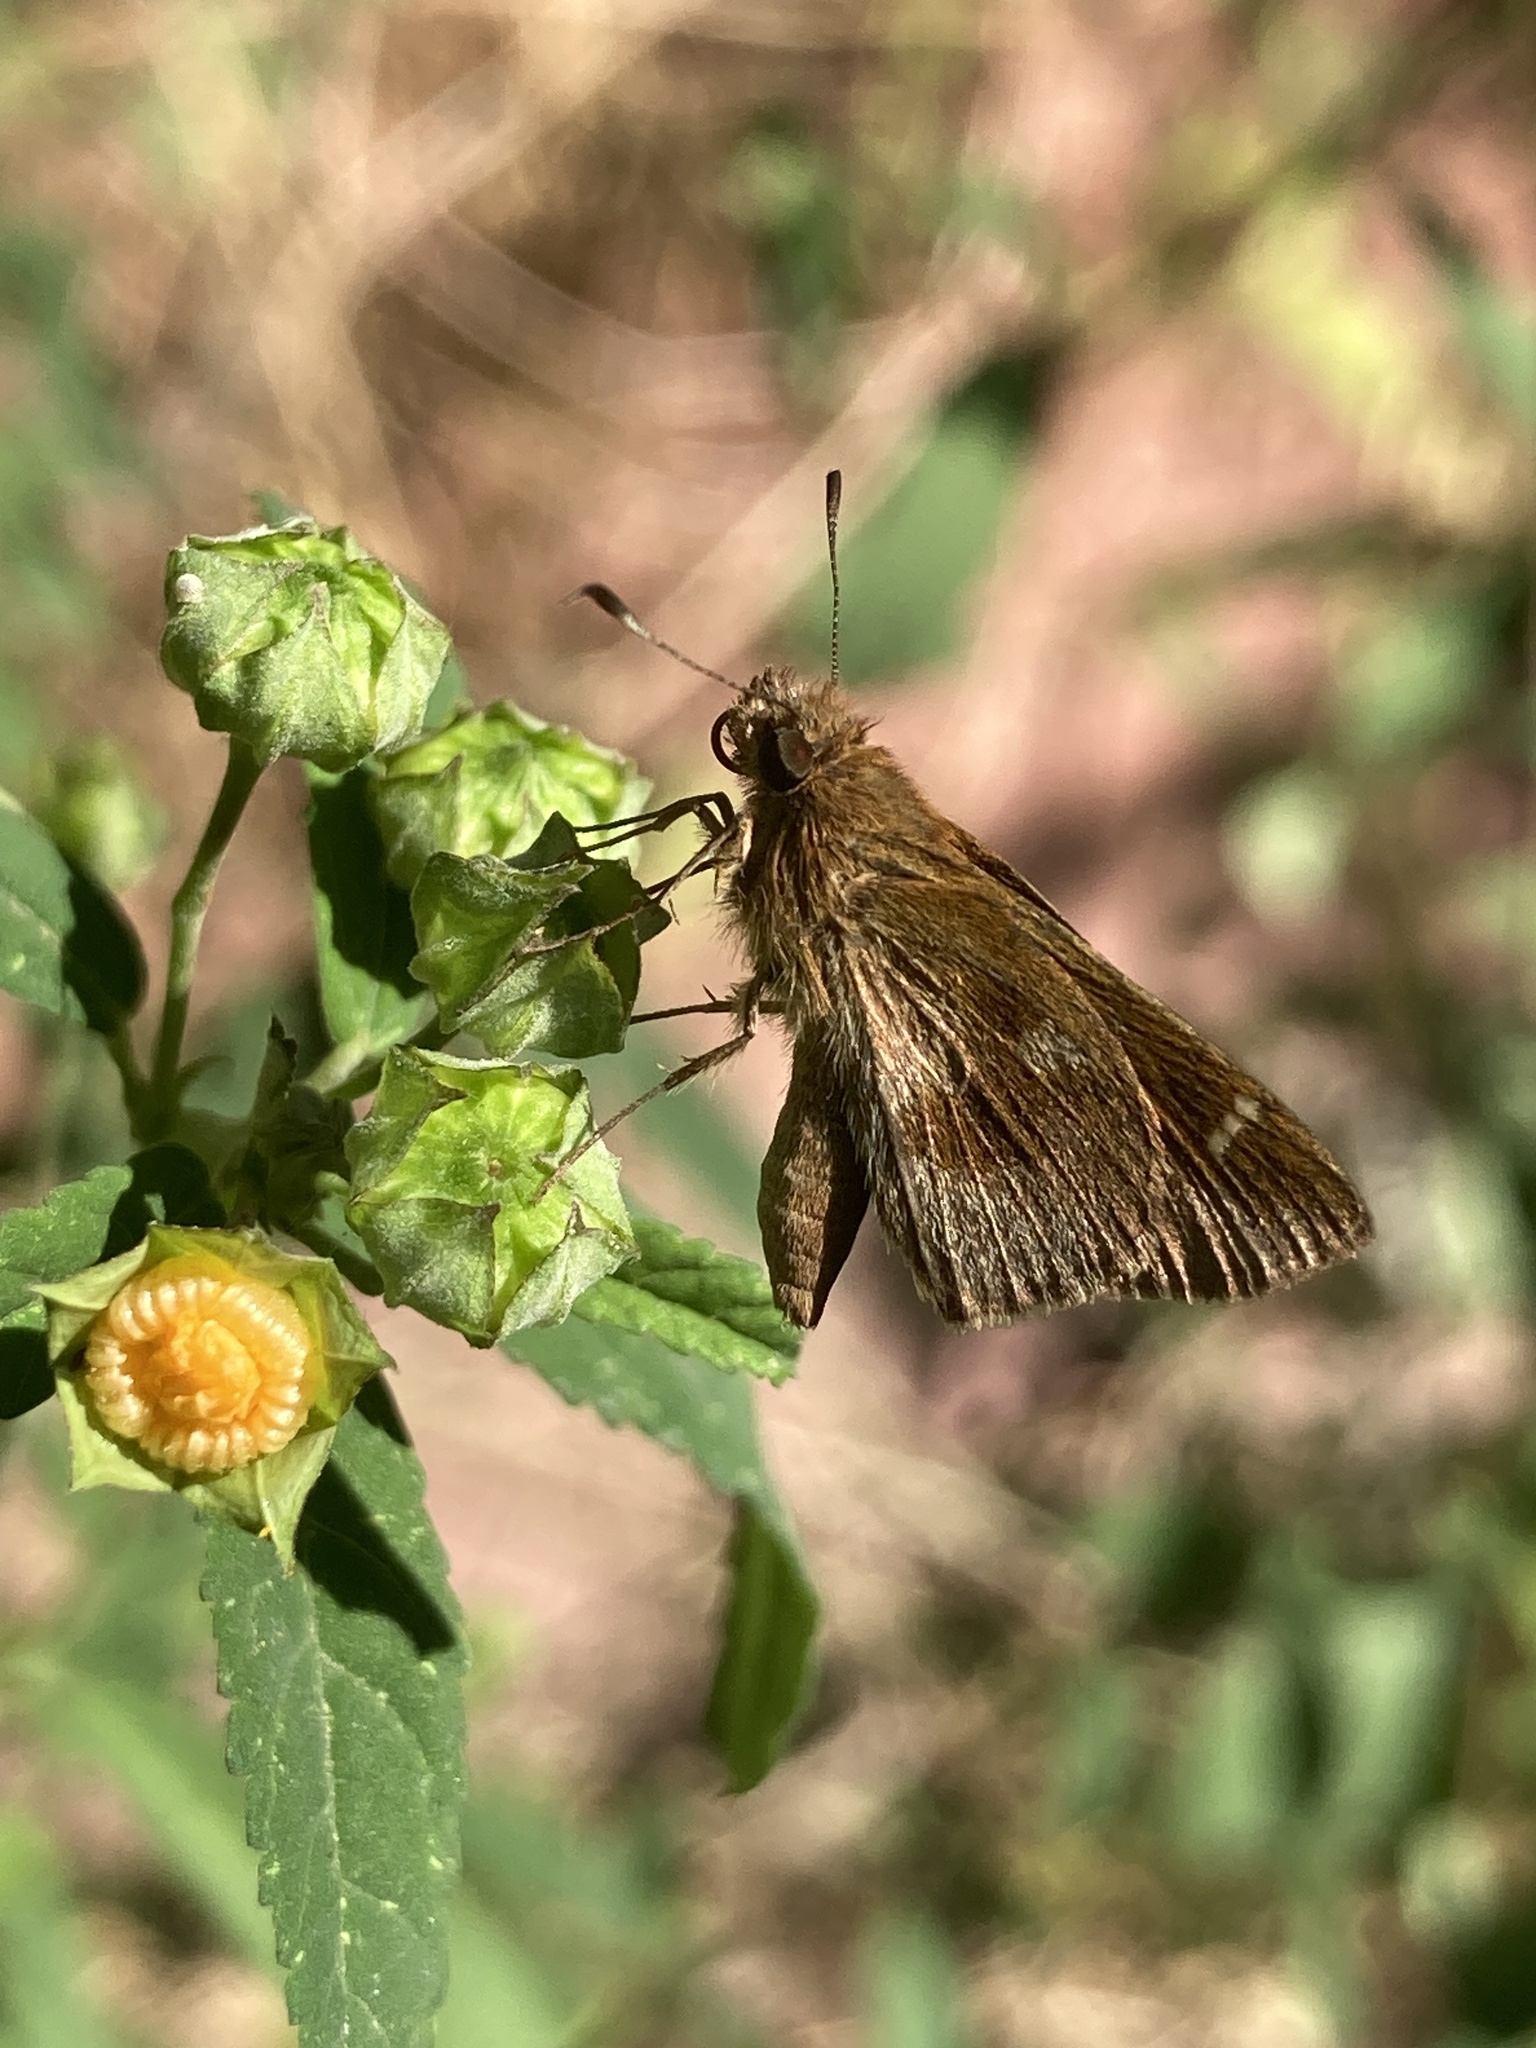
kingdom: Animalia
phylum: Arthropoda
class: Insecta
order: Lepidoptera
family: Hesperiidae
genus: Cymaenes
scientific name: Cymaenes
